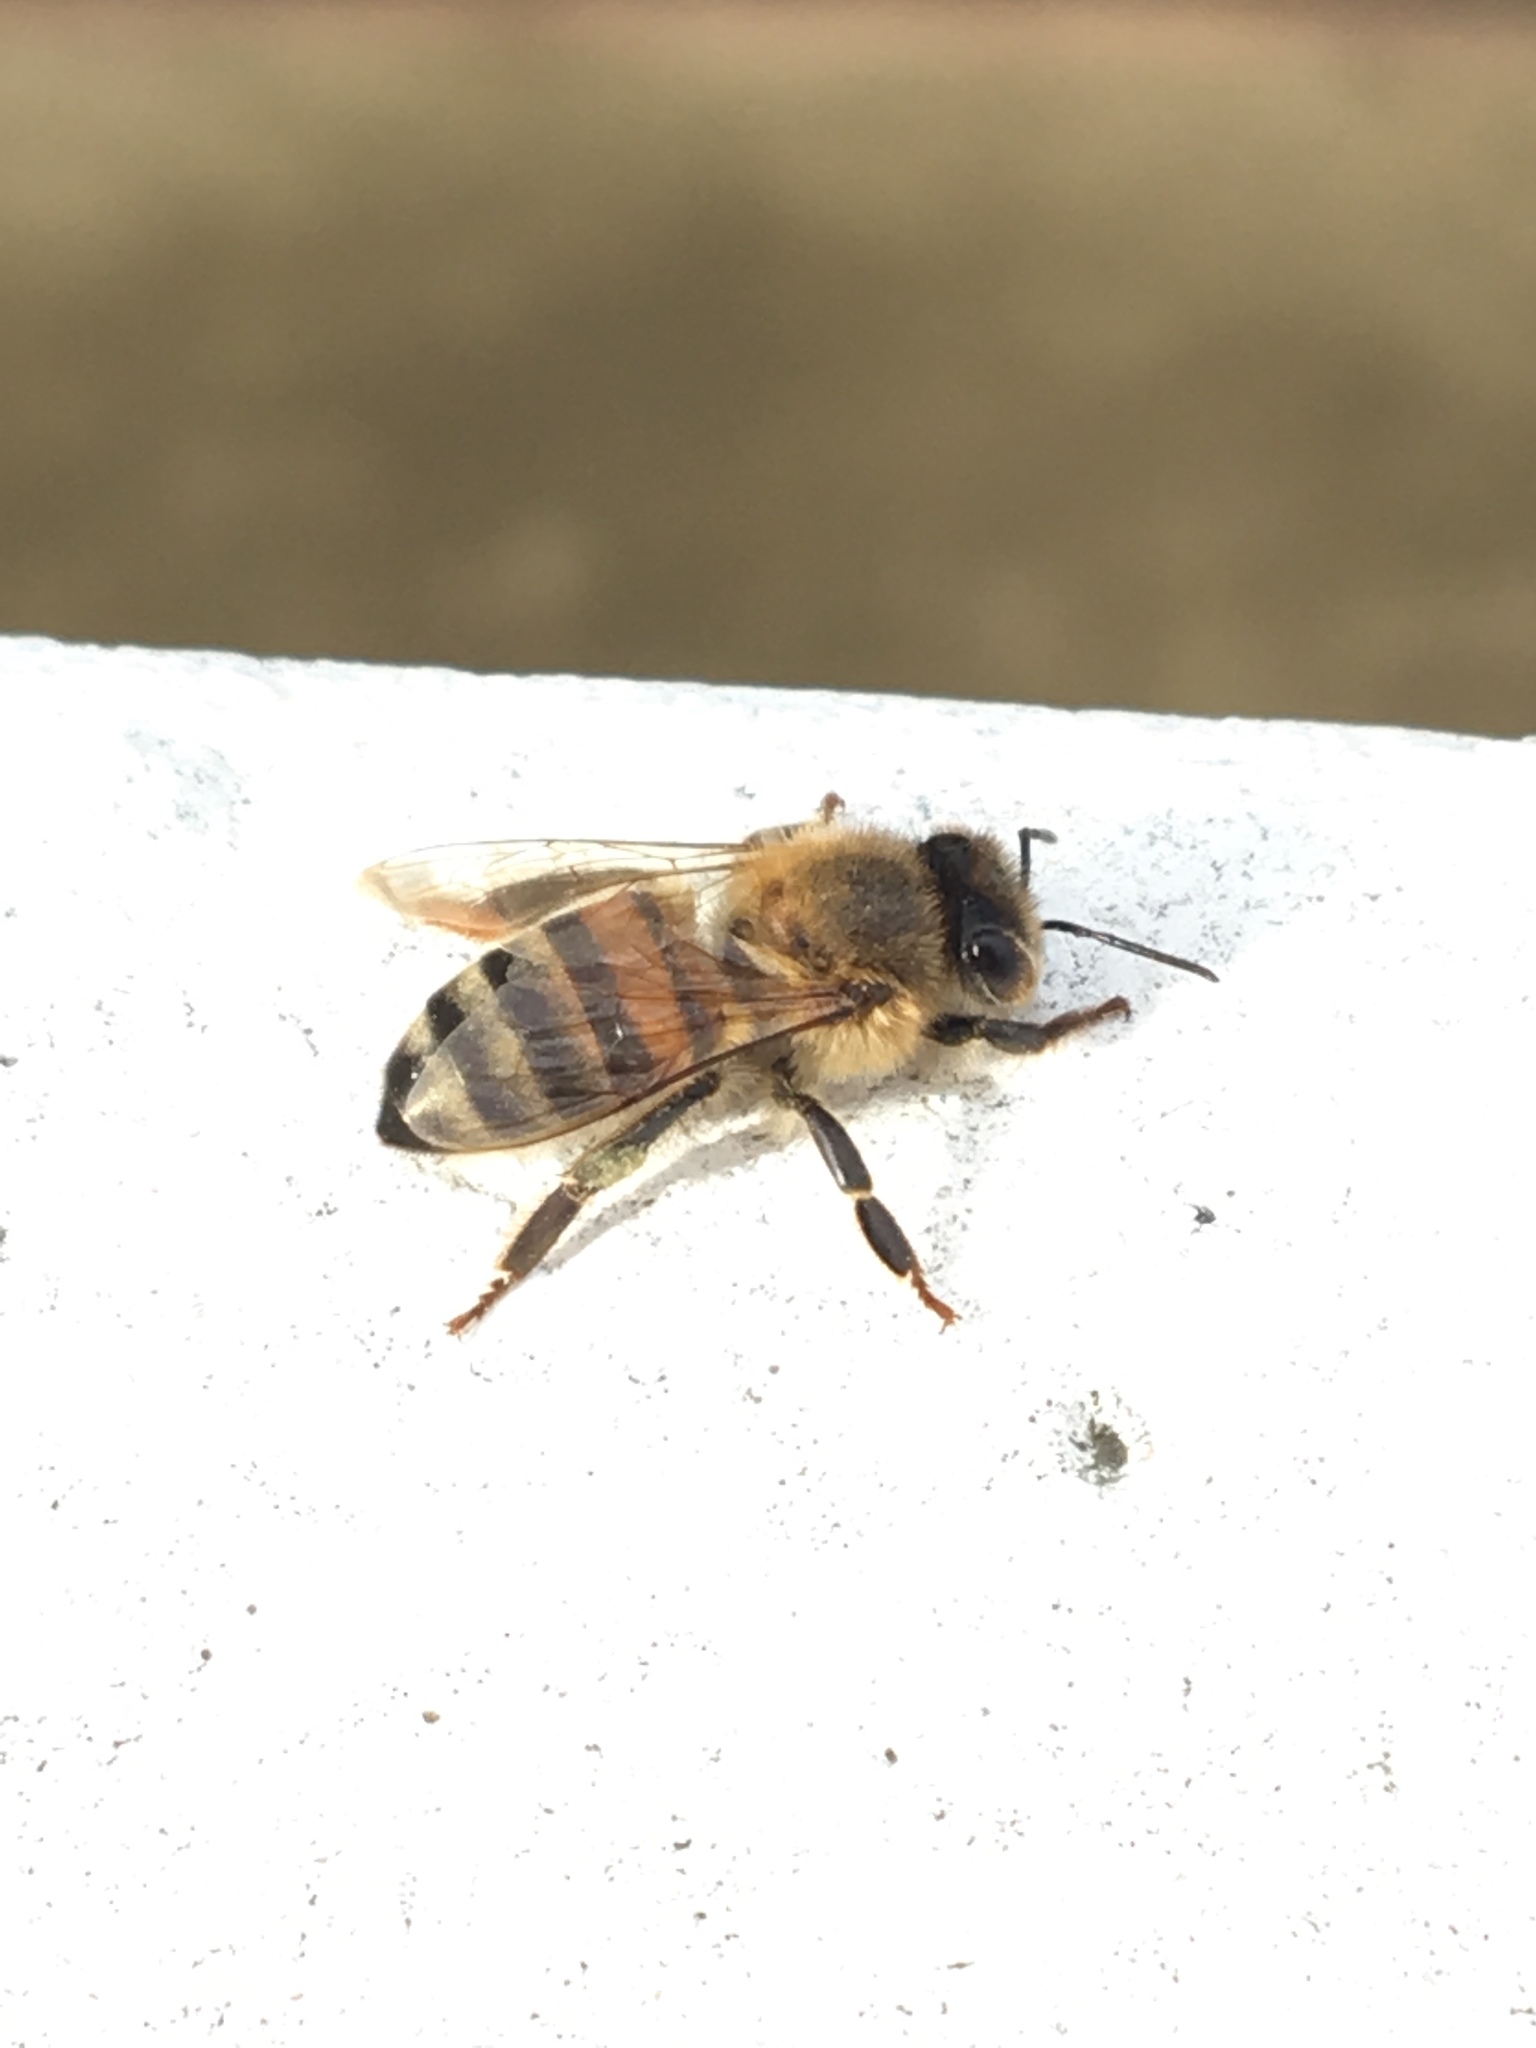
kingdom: Animalia
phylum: Arthropoda
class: Insecta
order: Hymenoptera
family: Apidae
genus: Apis
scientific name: Apis mellifera
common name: Honey bee
